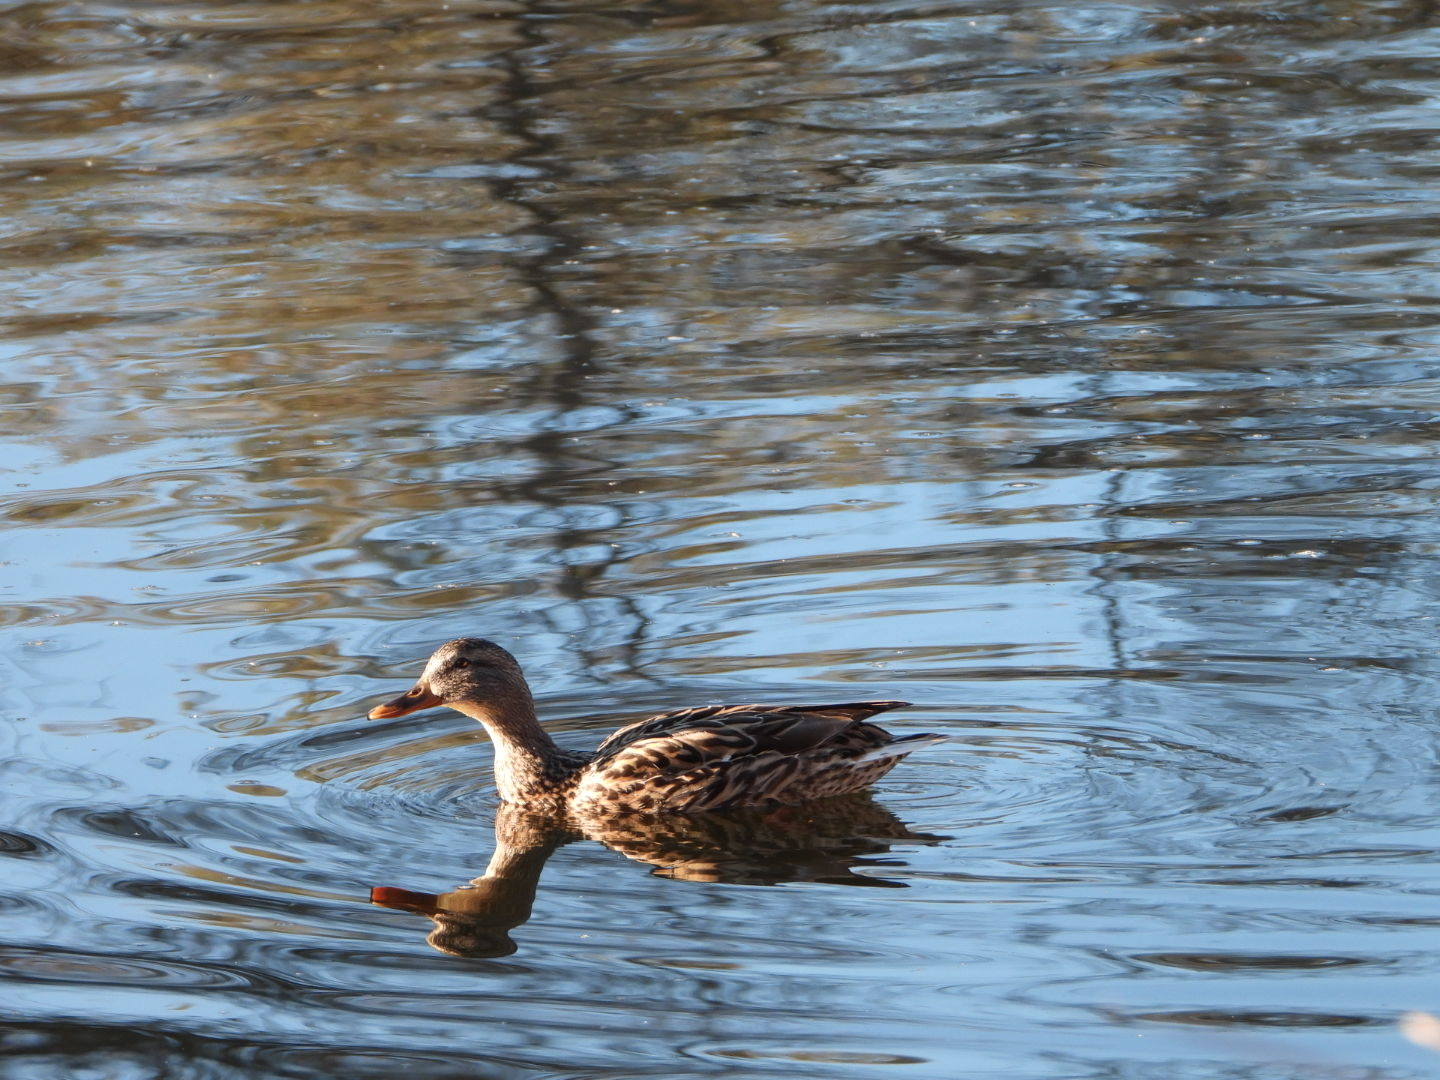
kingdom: Animalia
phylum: Chordata
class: Aves
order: Anseriformes
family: Anatidae
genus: Anas
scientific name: Anas platyrhynchos
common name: Mallard
